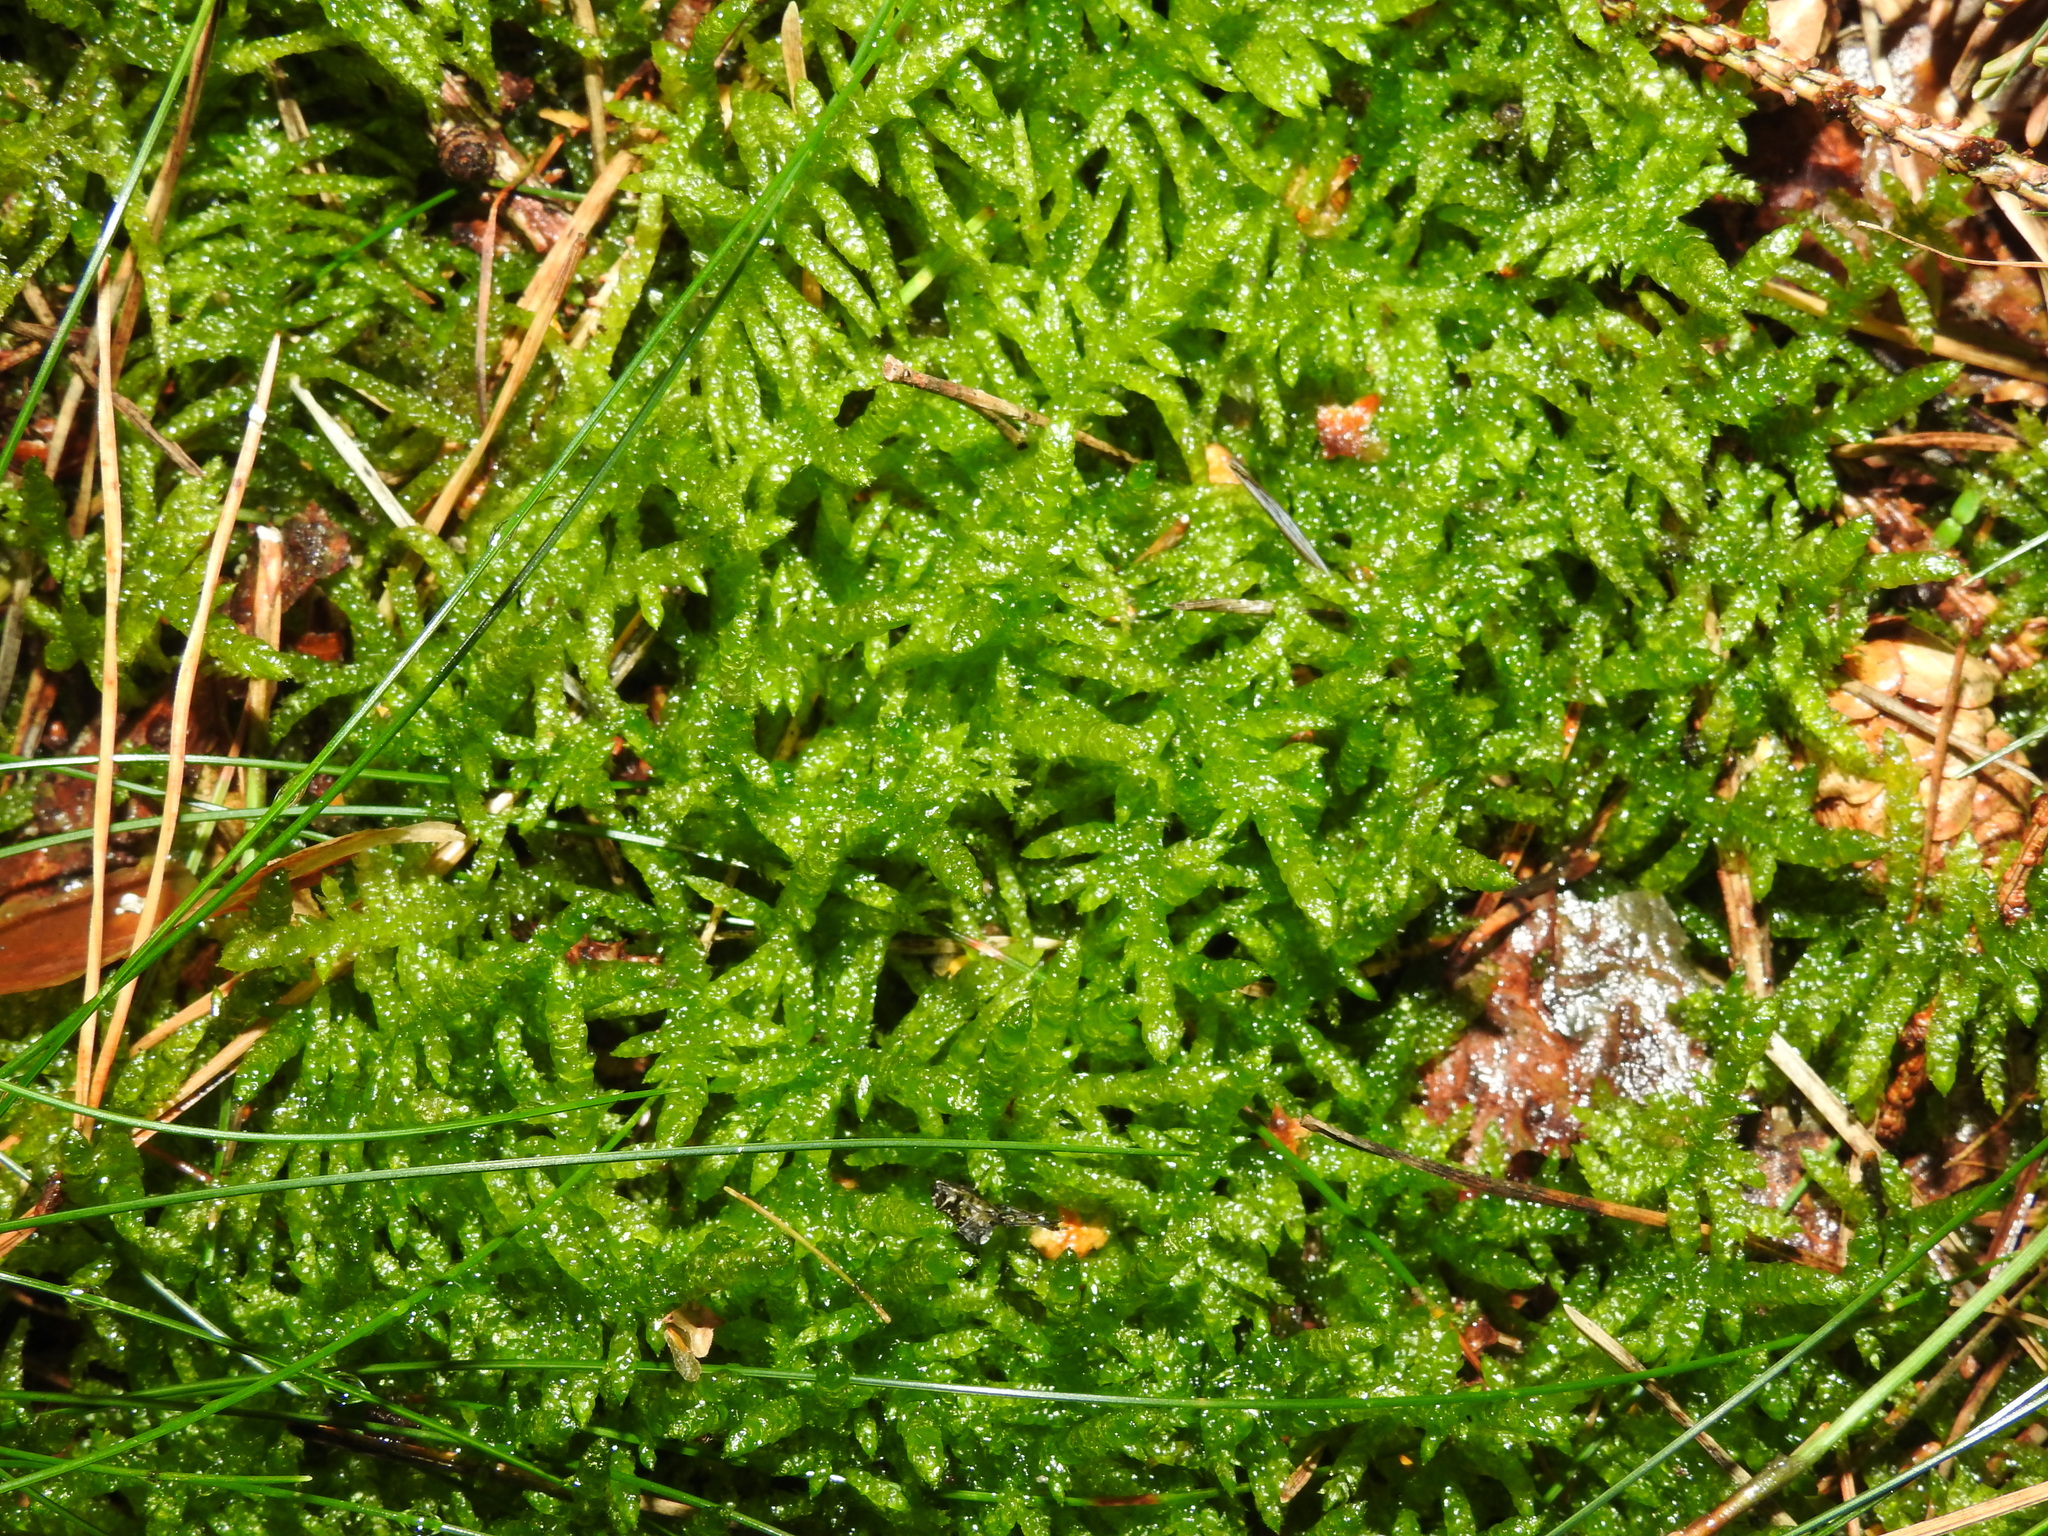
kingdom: Plantae
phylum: Bryophyta
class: Bryopsida
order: Hypnales
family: Brachytheciaceae
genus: Pseudoscleropodium
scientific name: Pseudoscleropodium purum
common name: Neat feather-moss
